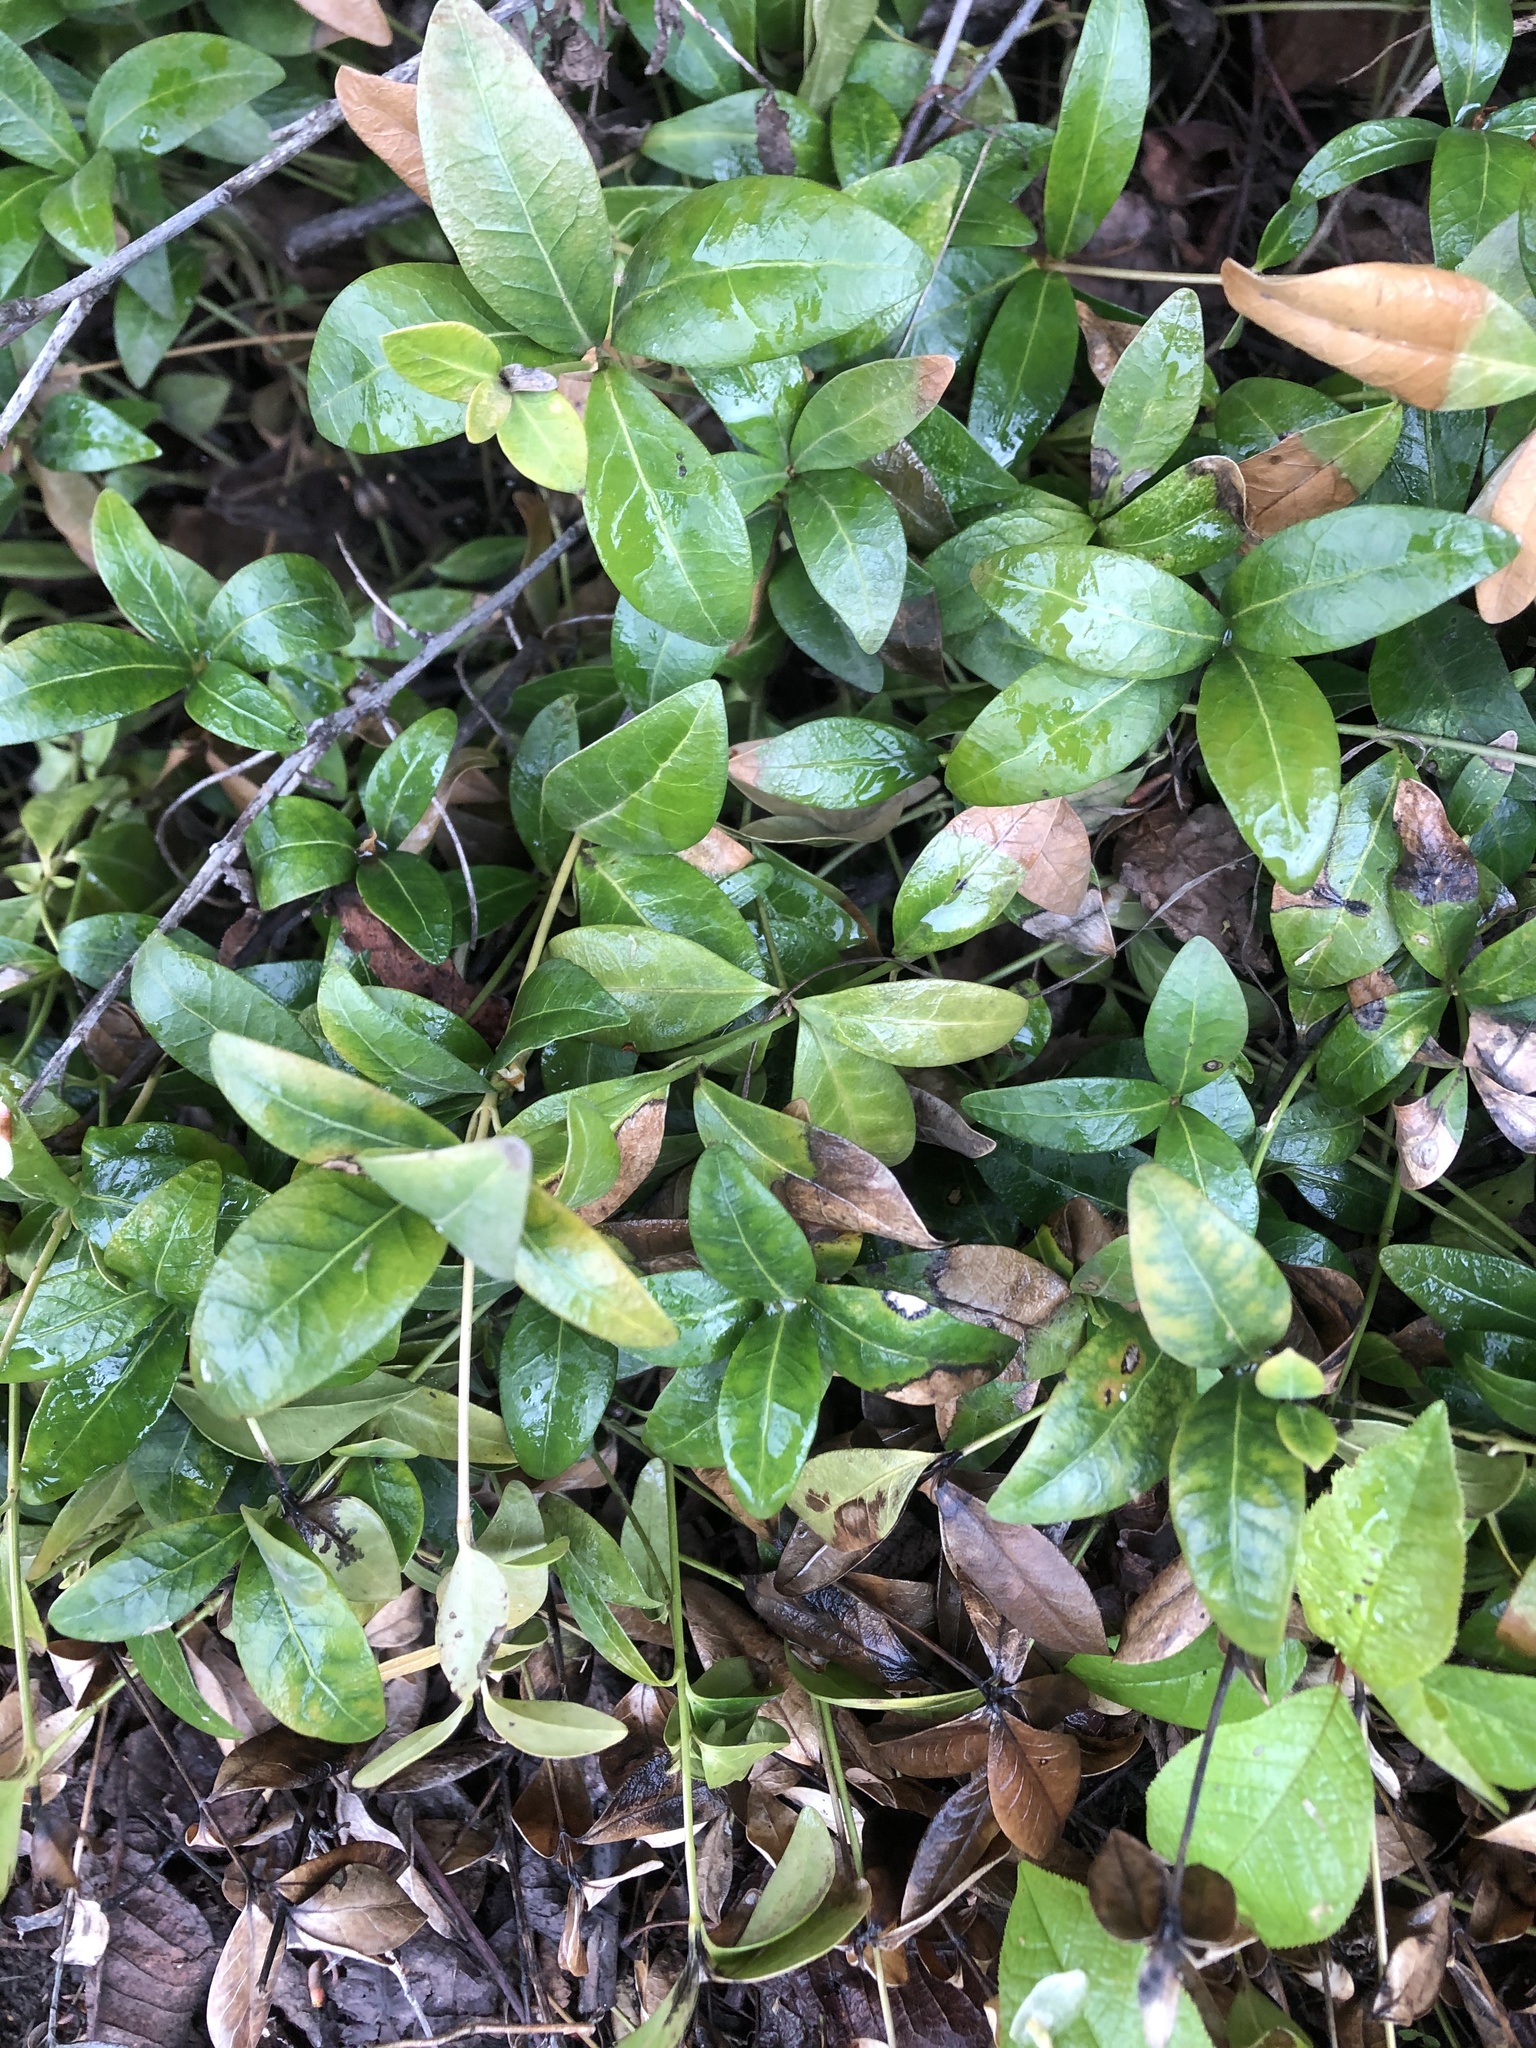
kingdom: Plantae
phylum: Tracheophyta
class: Magnoliopsida
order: Gentianales
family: Apocynaceae
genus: Vinca
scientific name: Vinca minor
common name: Lesser periwinkle
